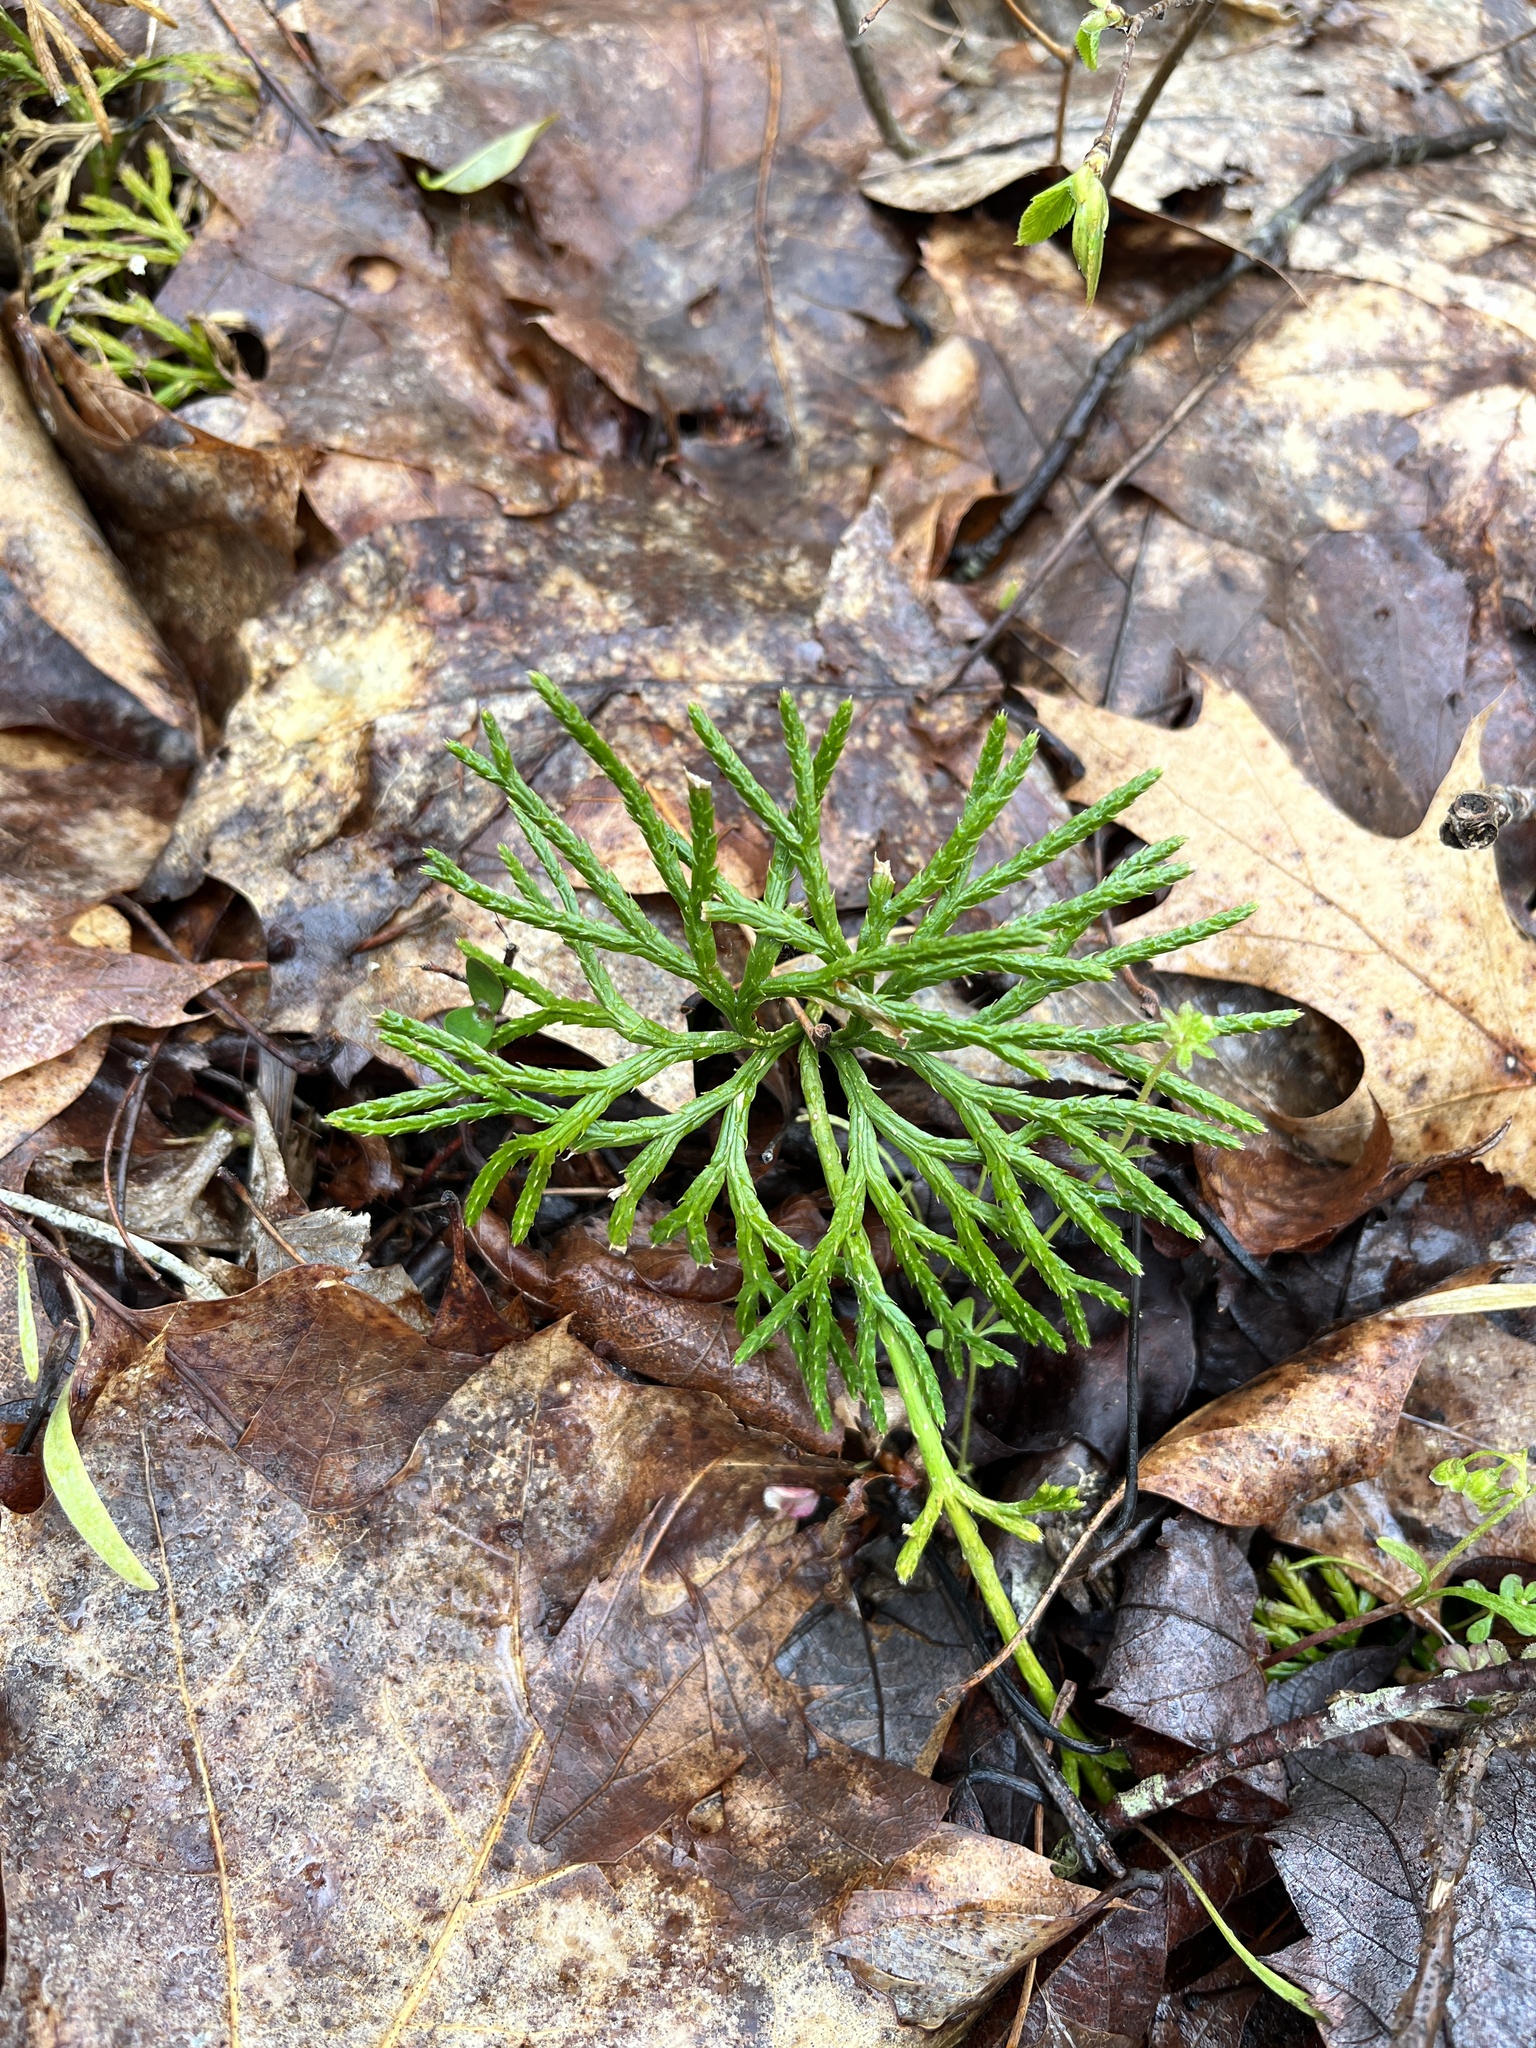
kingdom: Plantae
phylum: Tracheophyta
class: Lycopodiopsida
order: Lycopodiales
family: Lycopodiaceae
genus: Diphasiastrum
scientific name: Diphasiastrum digitatum
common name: Southern running-pine
